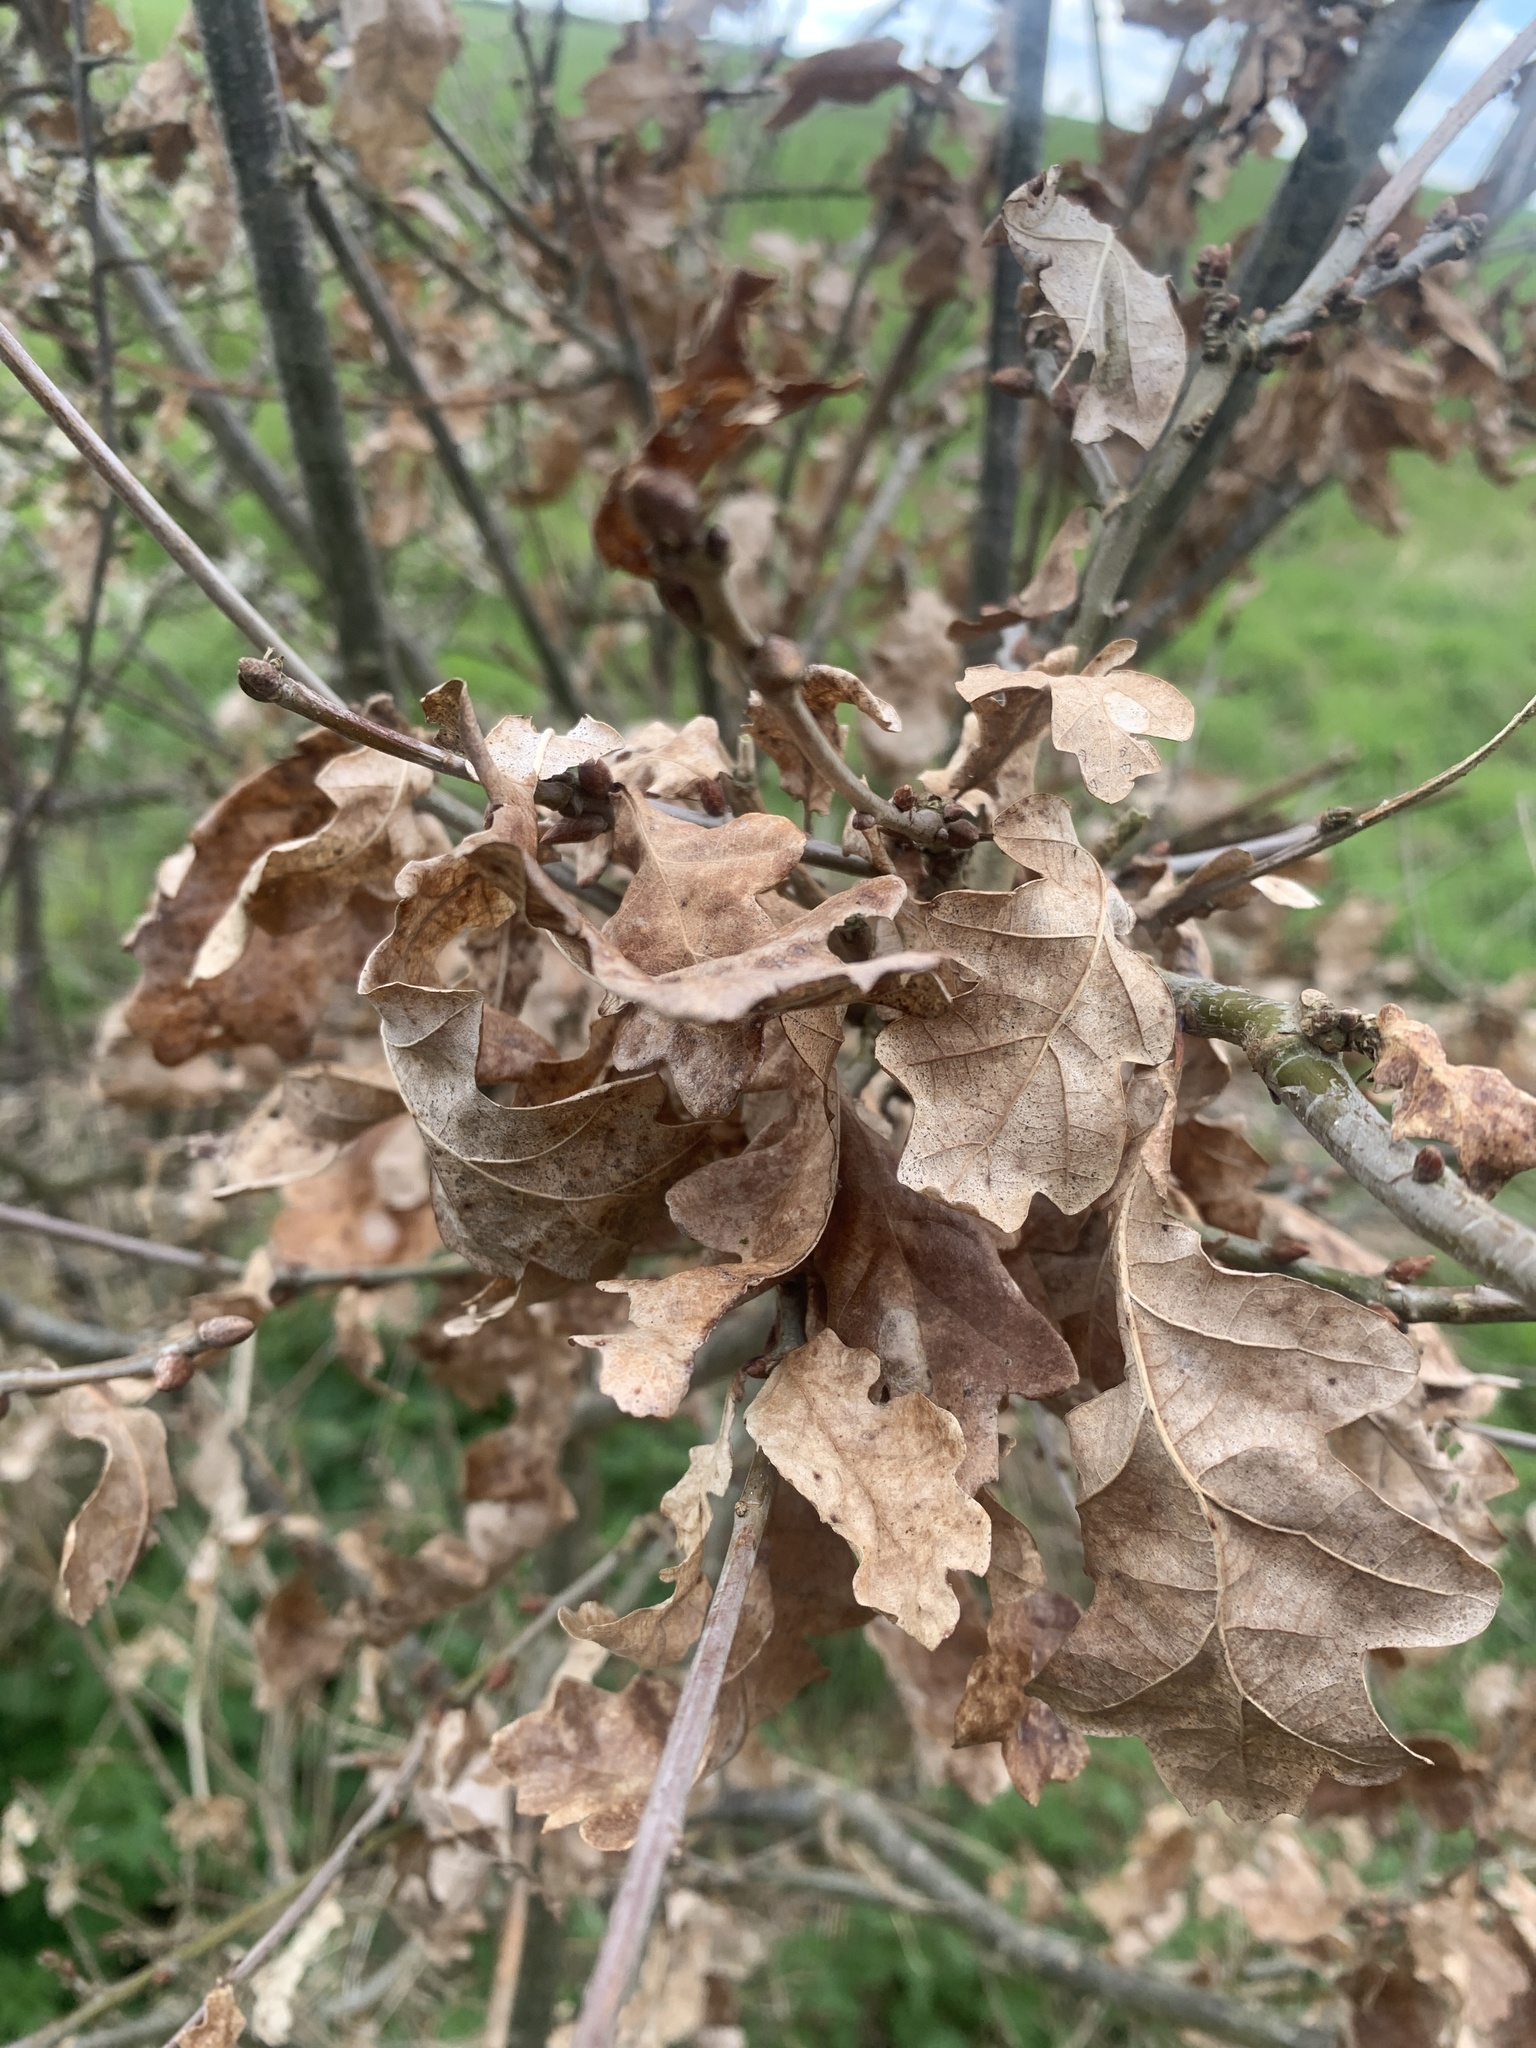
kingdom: Plantae
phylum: Tracheophyta
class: Magnoliopsida
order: Fagales
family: Fagaceae
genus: Quercus
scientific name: Quercus robur
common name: Pedunculate oak
